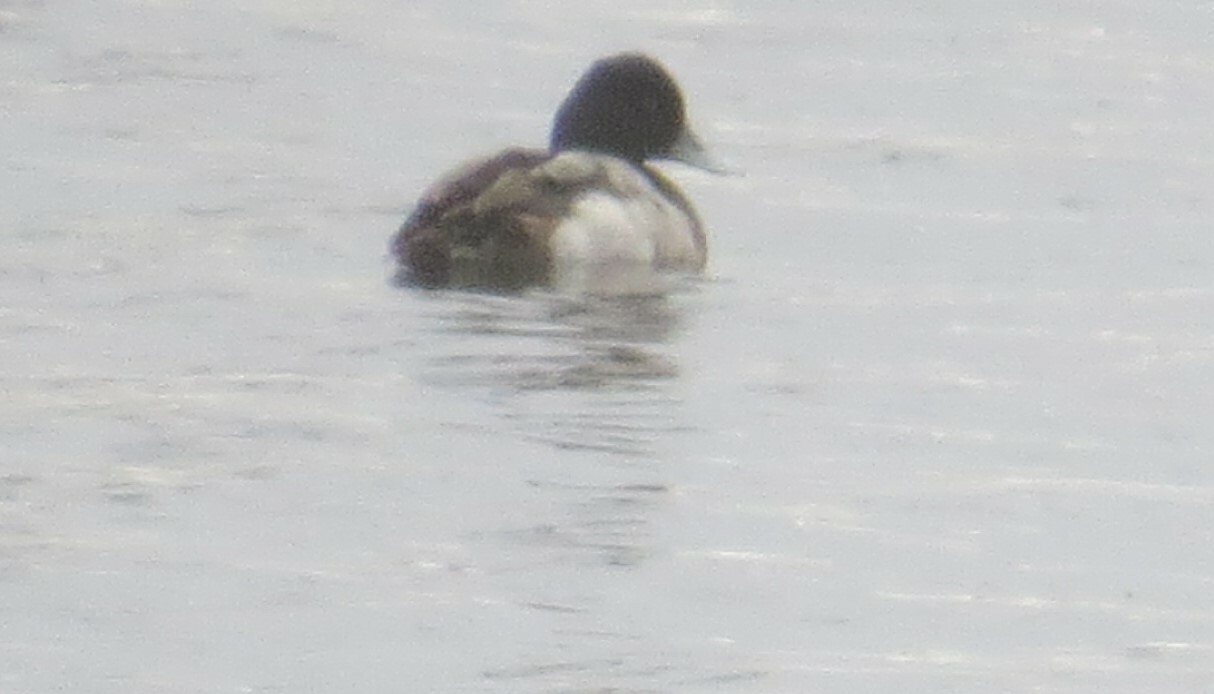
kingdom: Animalia
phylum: Chordata
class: Aves
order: Anseriformes
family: Anatidae
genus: Aythya
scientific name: Aythya affinis
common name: Lesser scaup
